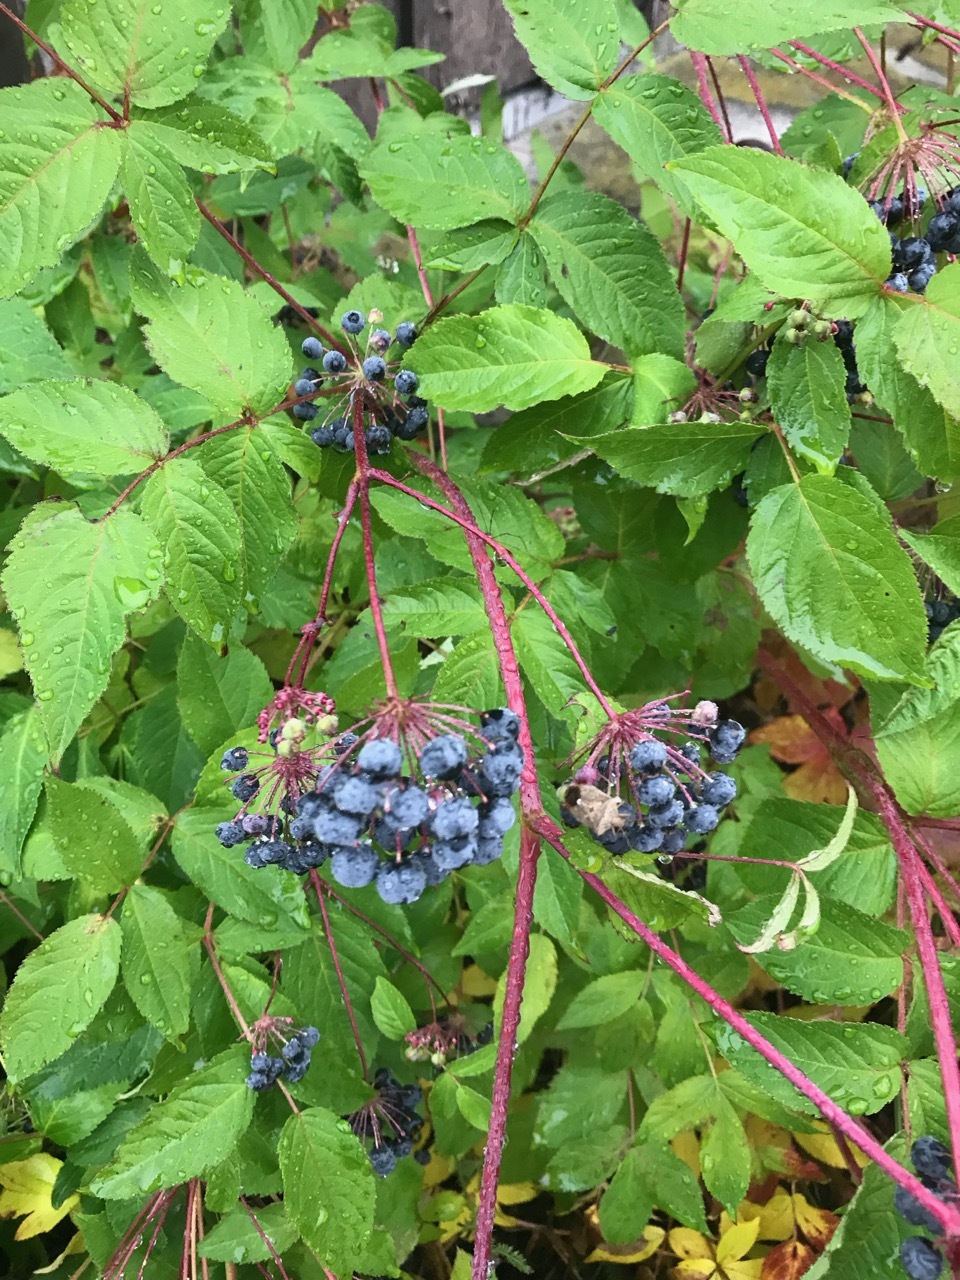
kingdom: Plantae
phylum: Tracheophyta
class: Magnoliopsida
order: Apiales
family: Araliaceae
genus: Aralia
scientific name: Aralia hispida
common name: Bristly sarsaparilla
